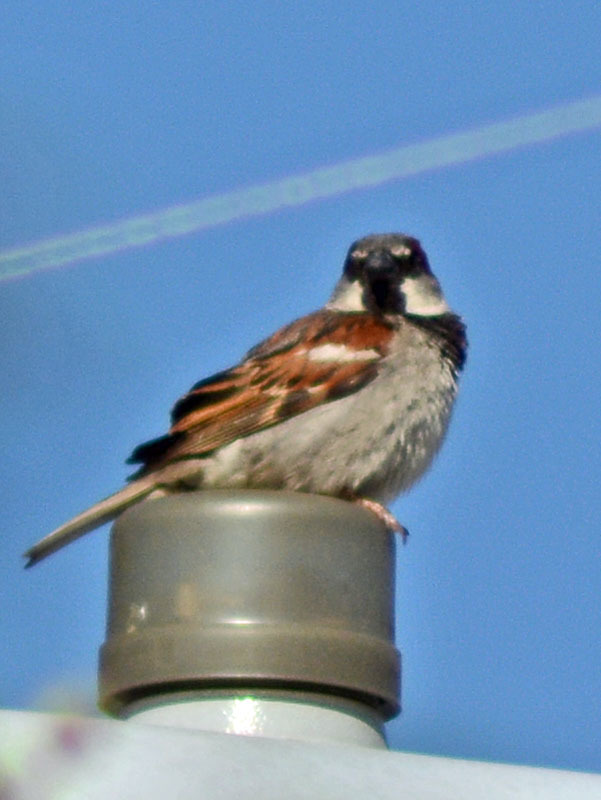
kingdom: Animalia
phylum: Chordata
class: Aves
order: Passeriformes
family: Passeridae
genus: Passer
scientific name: Passer domesticus
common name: House sparrow
